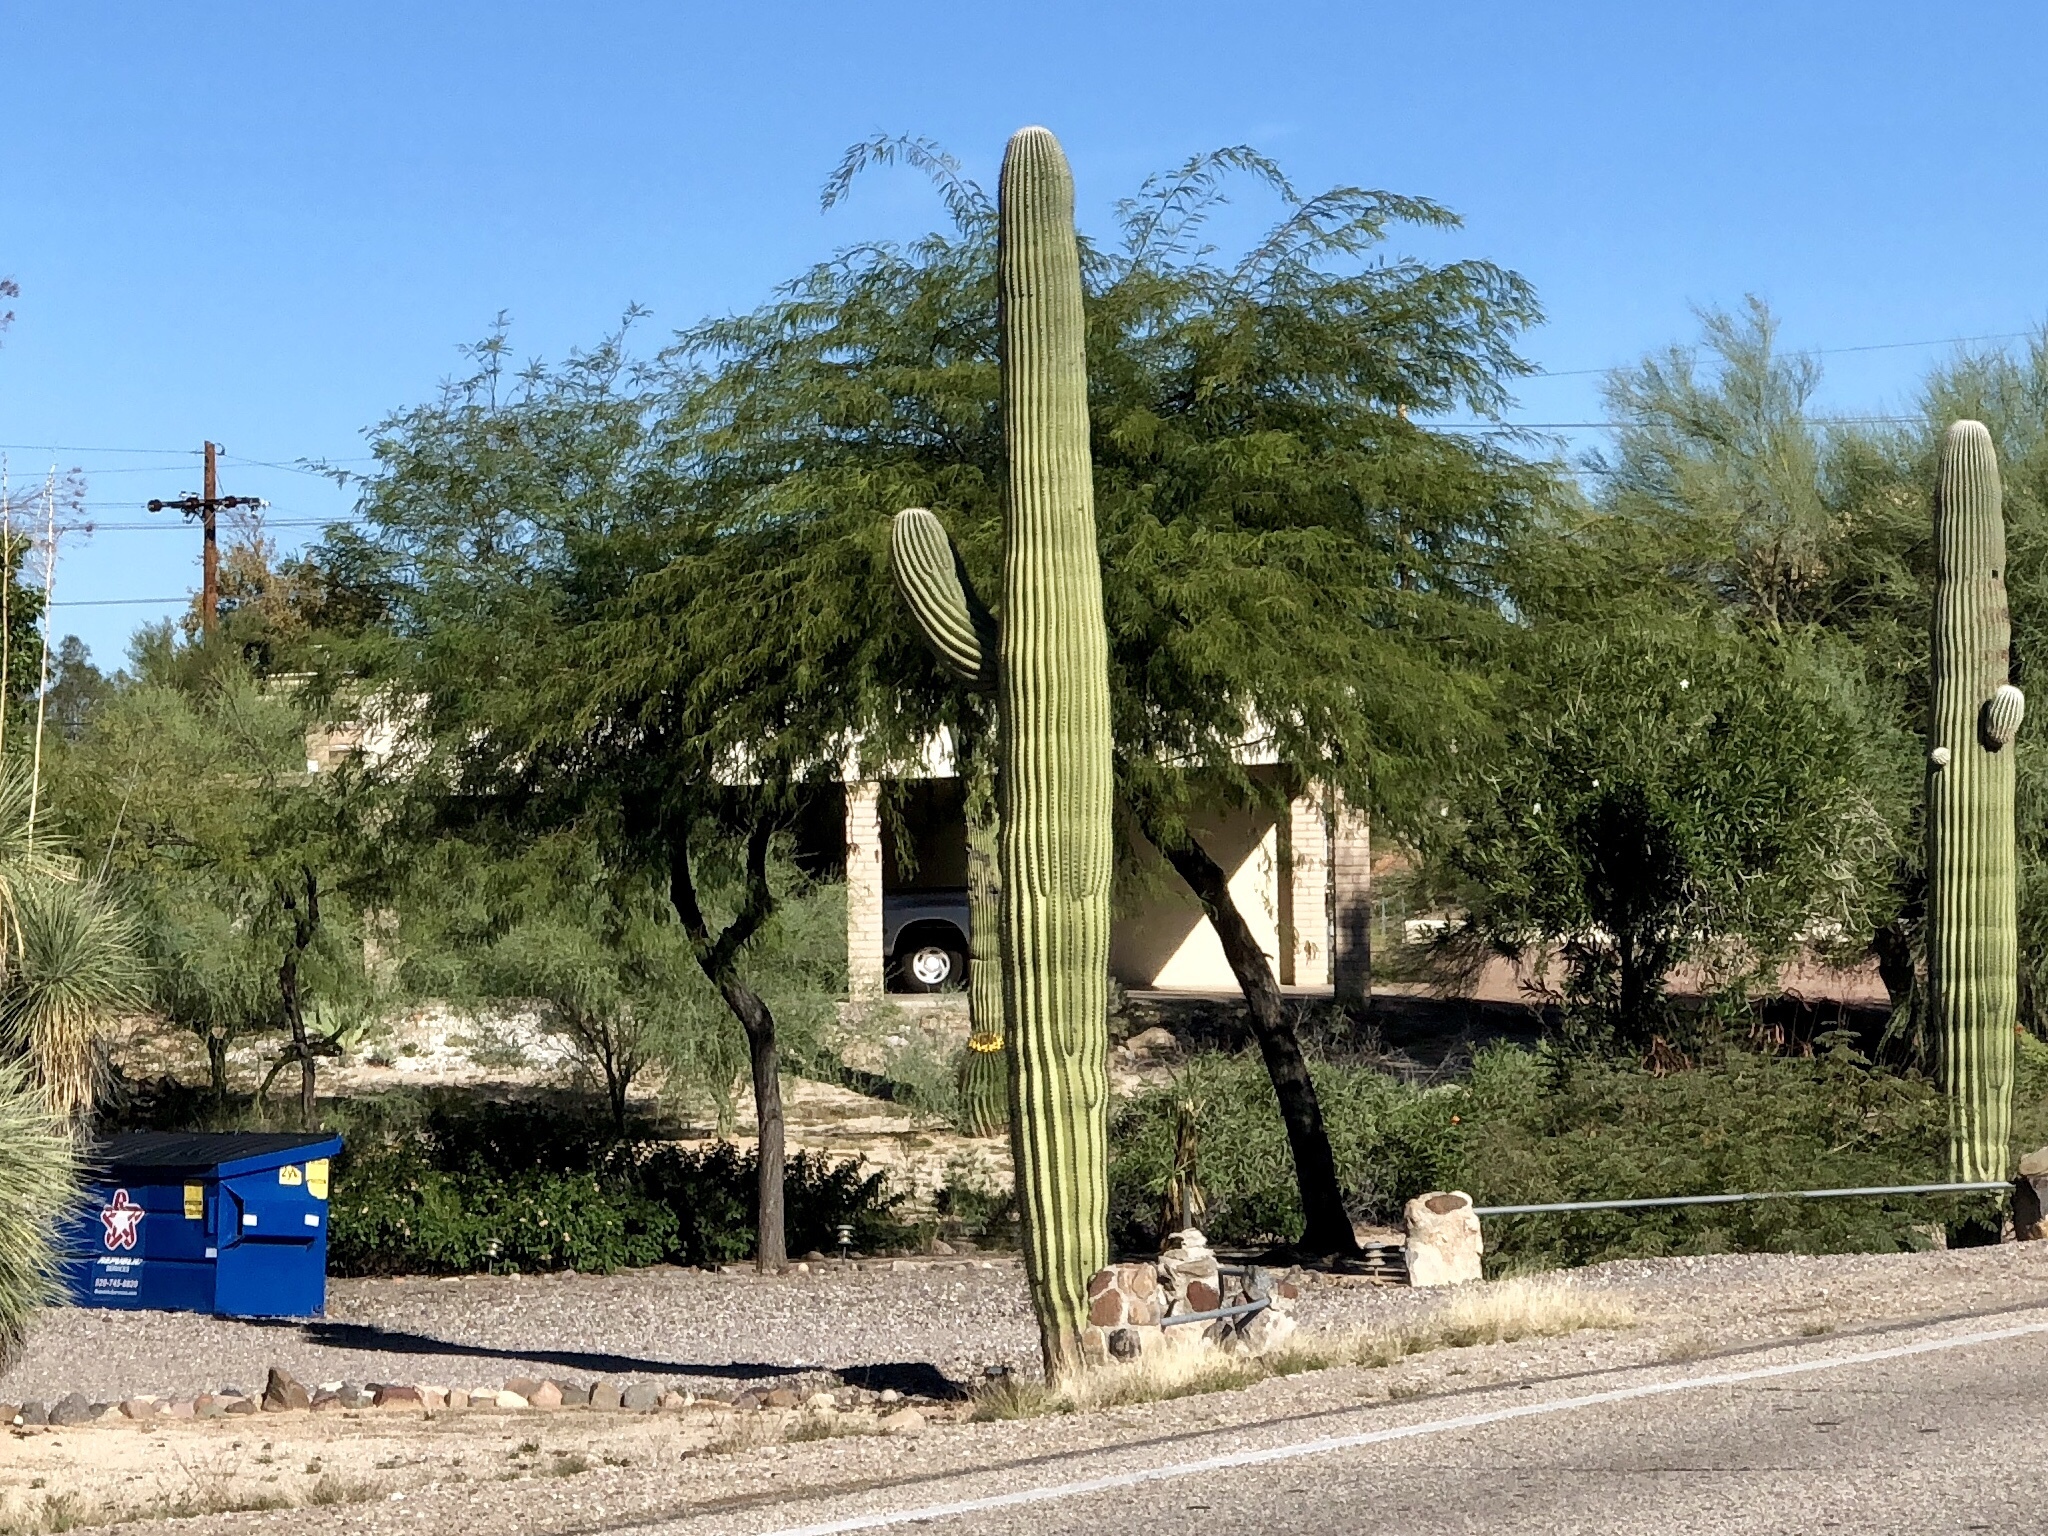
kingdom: Plantae
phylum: Tracheophyta
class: Magnoliopsida
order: Caryophyllales
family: Cactaceae
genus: Carnegiea
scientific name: Carnegiea gigantea
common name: Saguaro
